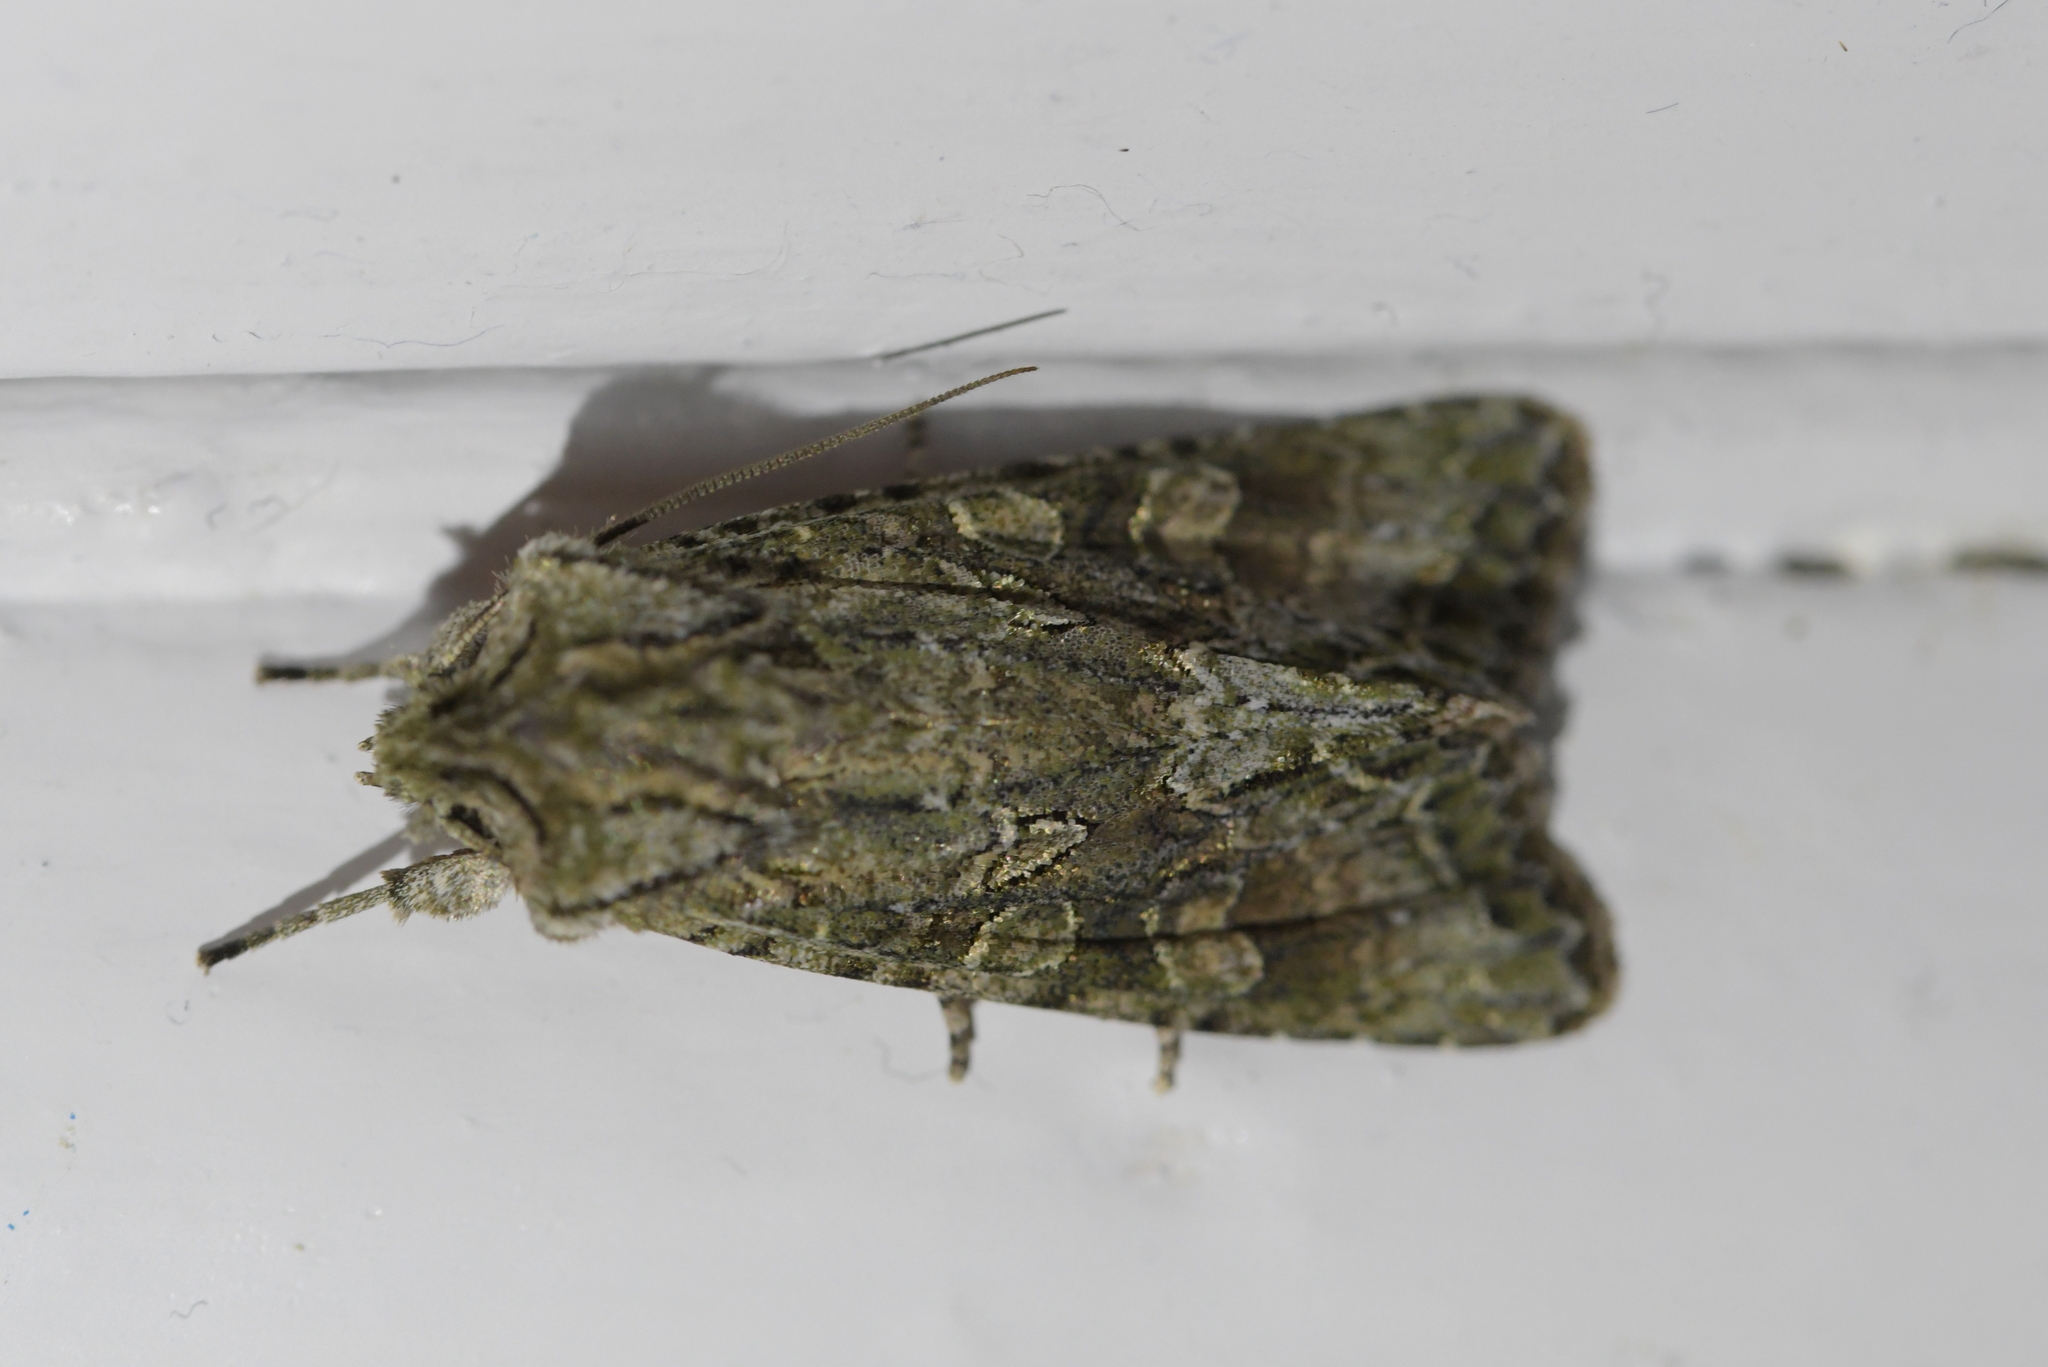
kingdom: Animalia
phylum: Arthropoda
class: Insecta
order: Lepidoptera
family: Noctuidae
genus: Ichneutica
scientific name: Ichneutica mutans
